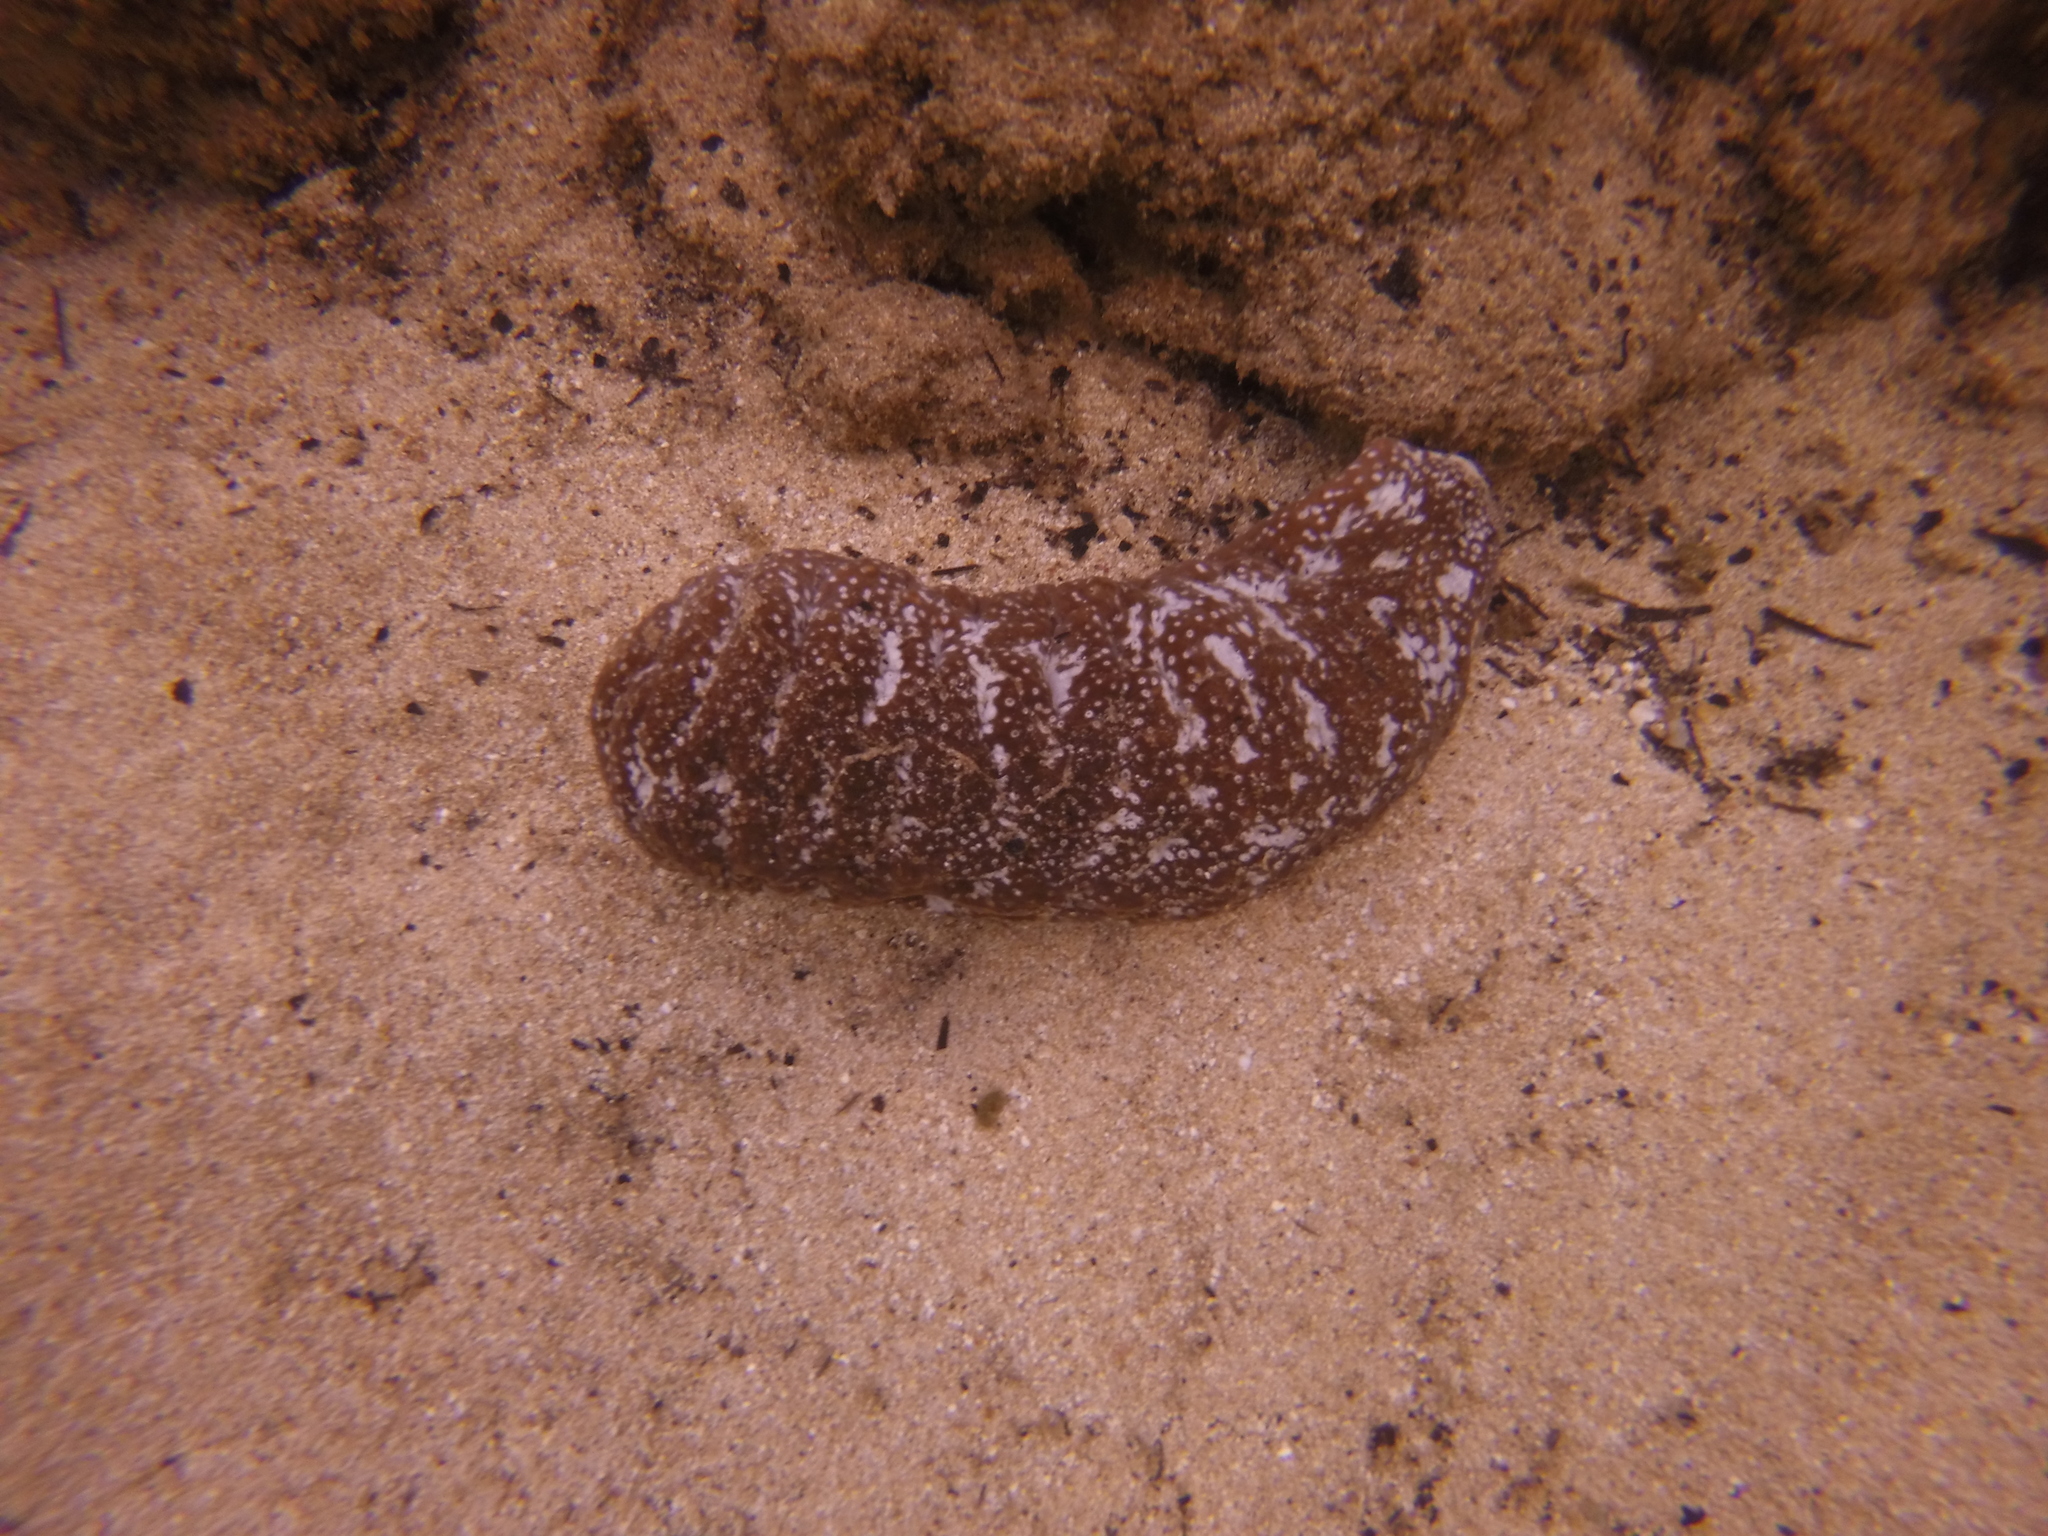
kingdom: Animalia
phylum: Echinodermata
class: Holothuroidea
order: Holothuriida
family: Holothuriidae
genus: Actinopyga
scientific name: Actinopyga varians
